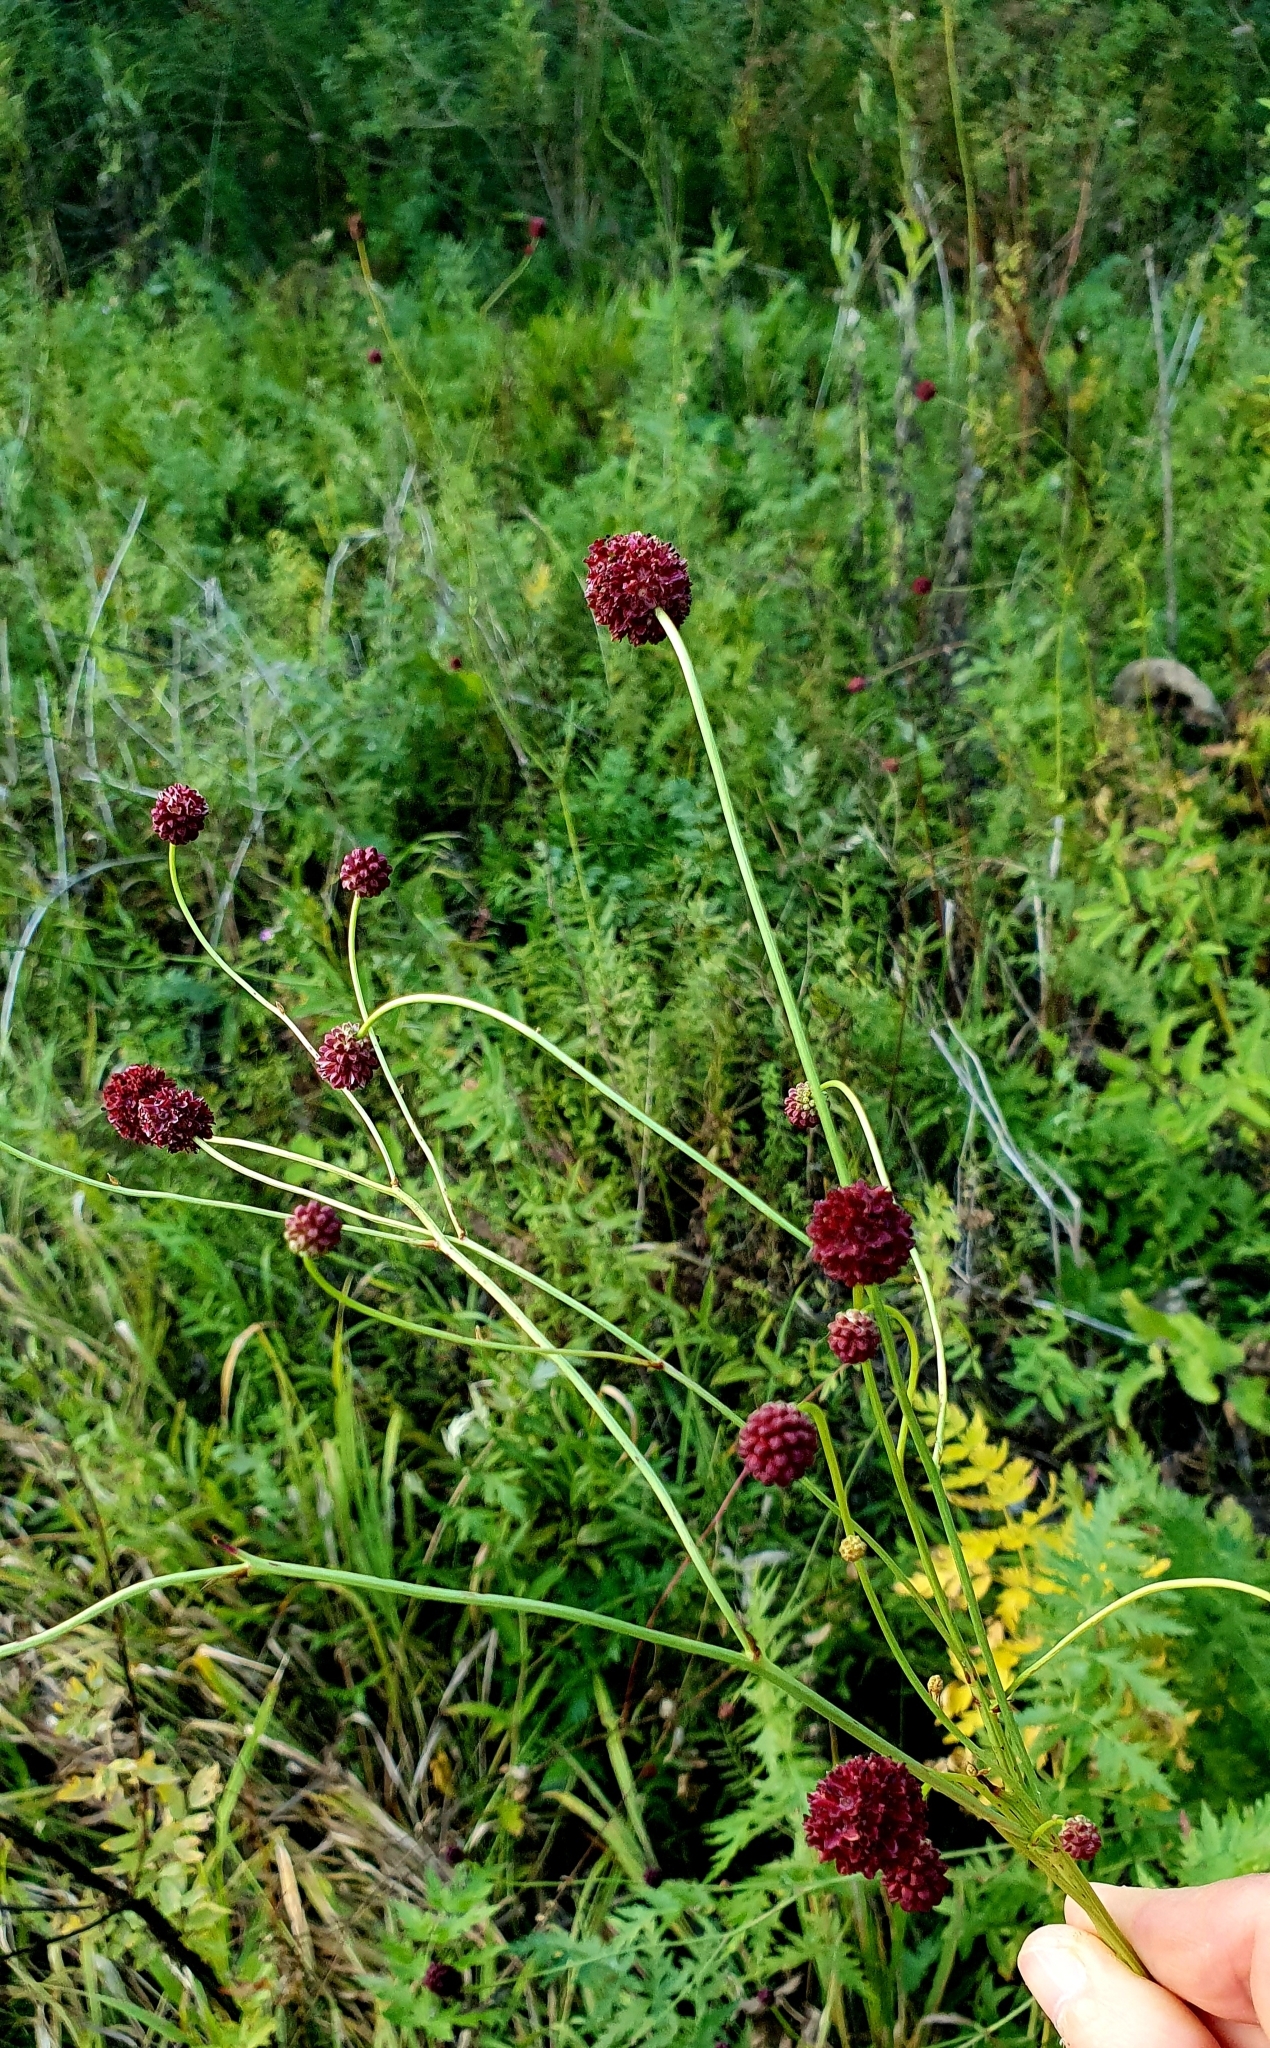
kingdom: Plantae
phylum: Tracheophyta
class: Magnoliopsida
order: Rosales
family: Rosaceae
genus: Sanguisorba
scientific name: Sanguisorba officinalis
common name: Great burnet
